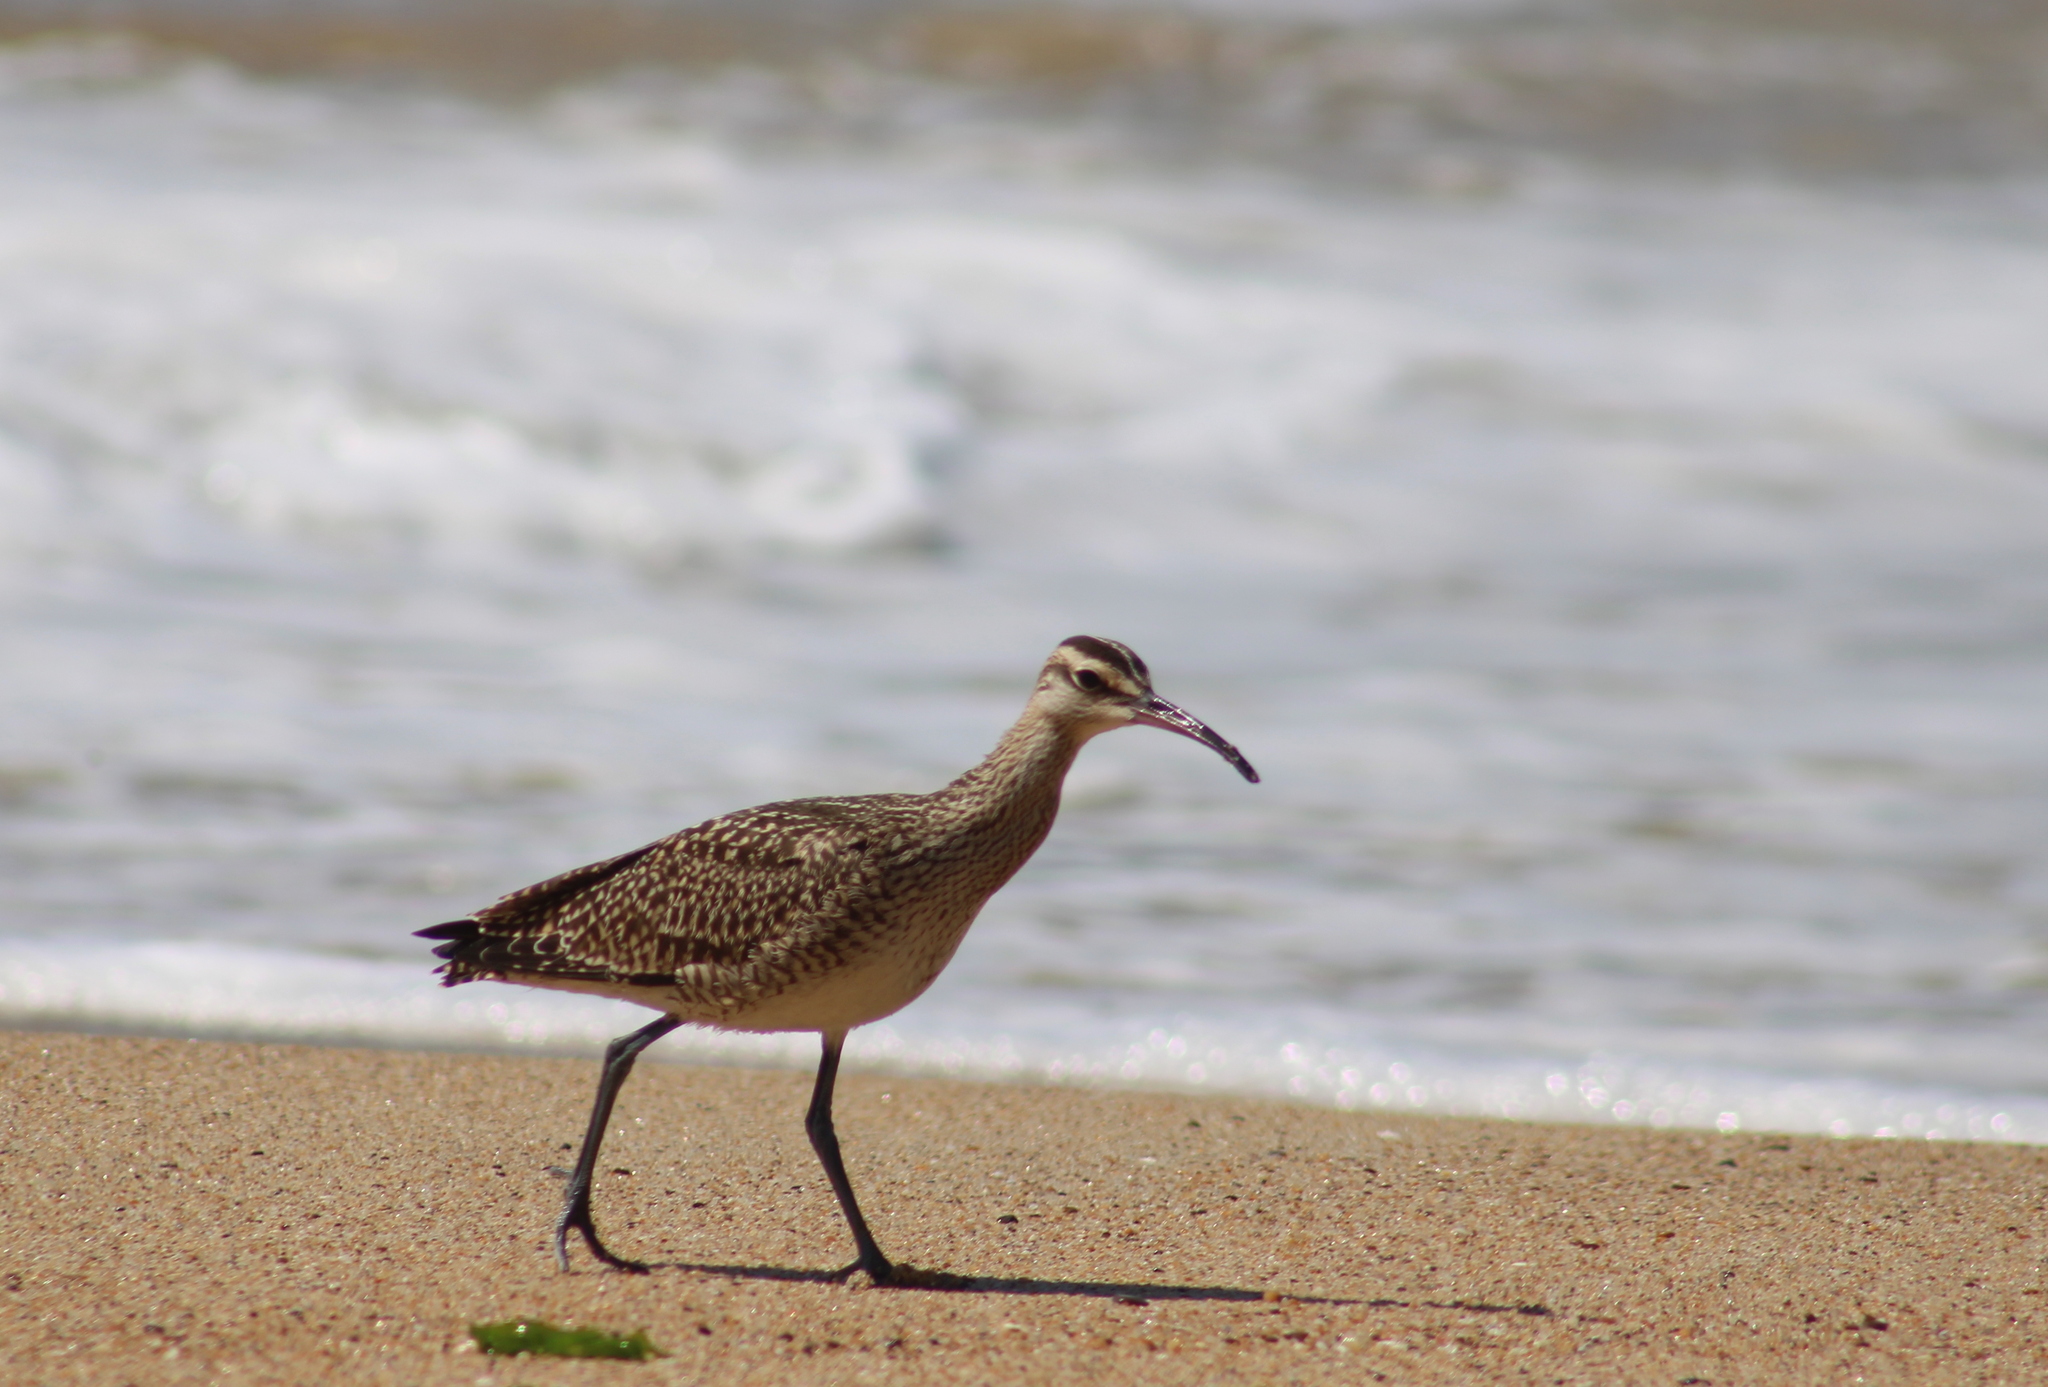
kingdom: Animalia
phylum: Chordata
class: Aves
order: Charadriiformes
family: Scolopacidae
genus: Numenius
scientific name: Numenius phaeopus
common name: Whimbrel
